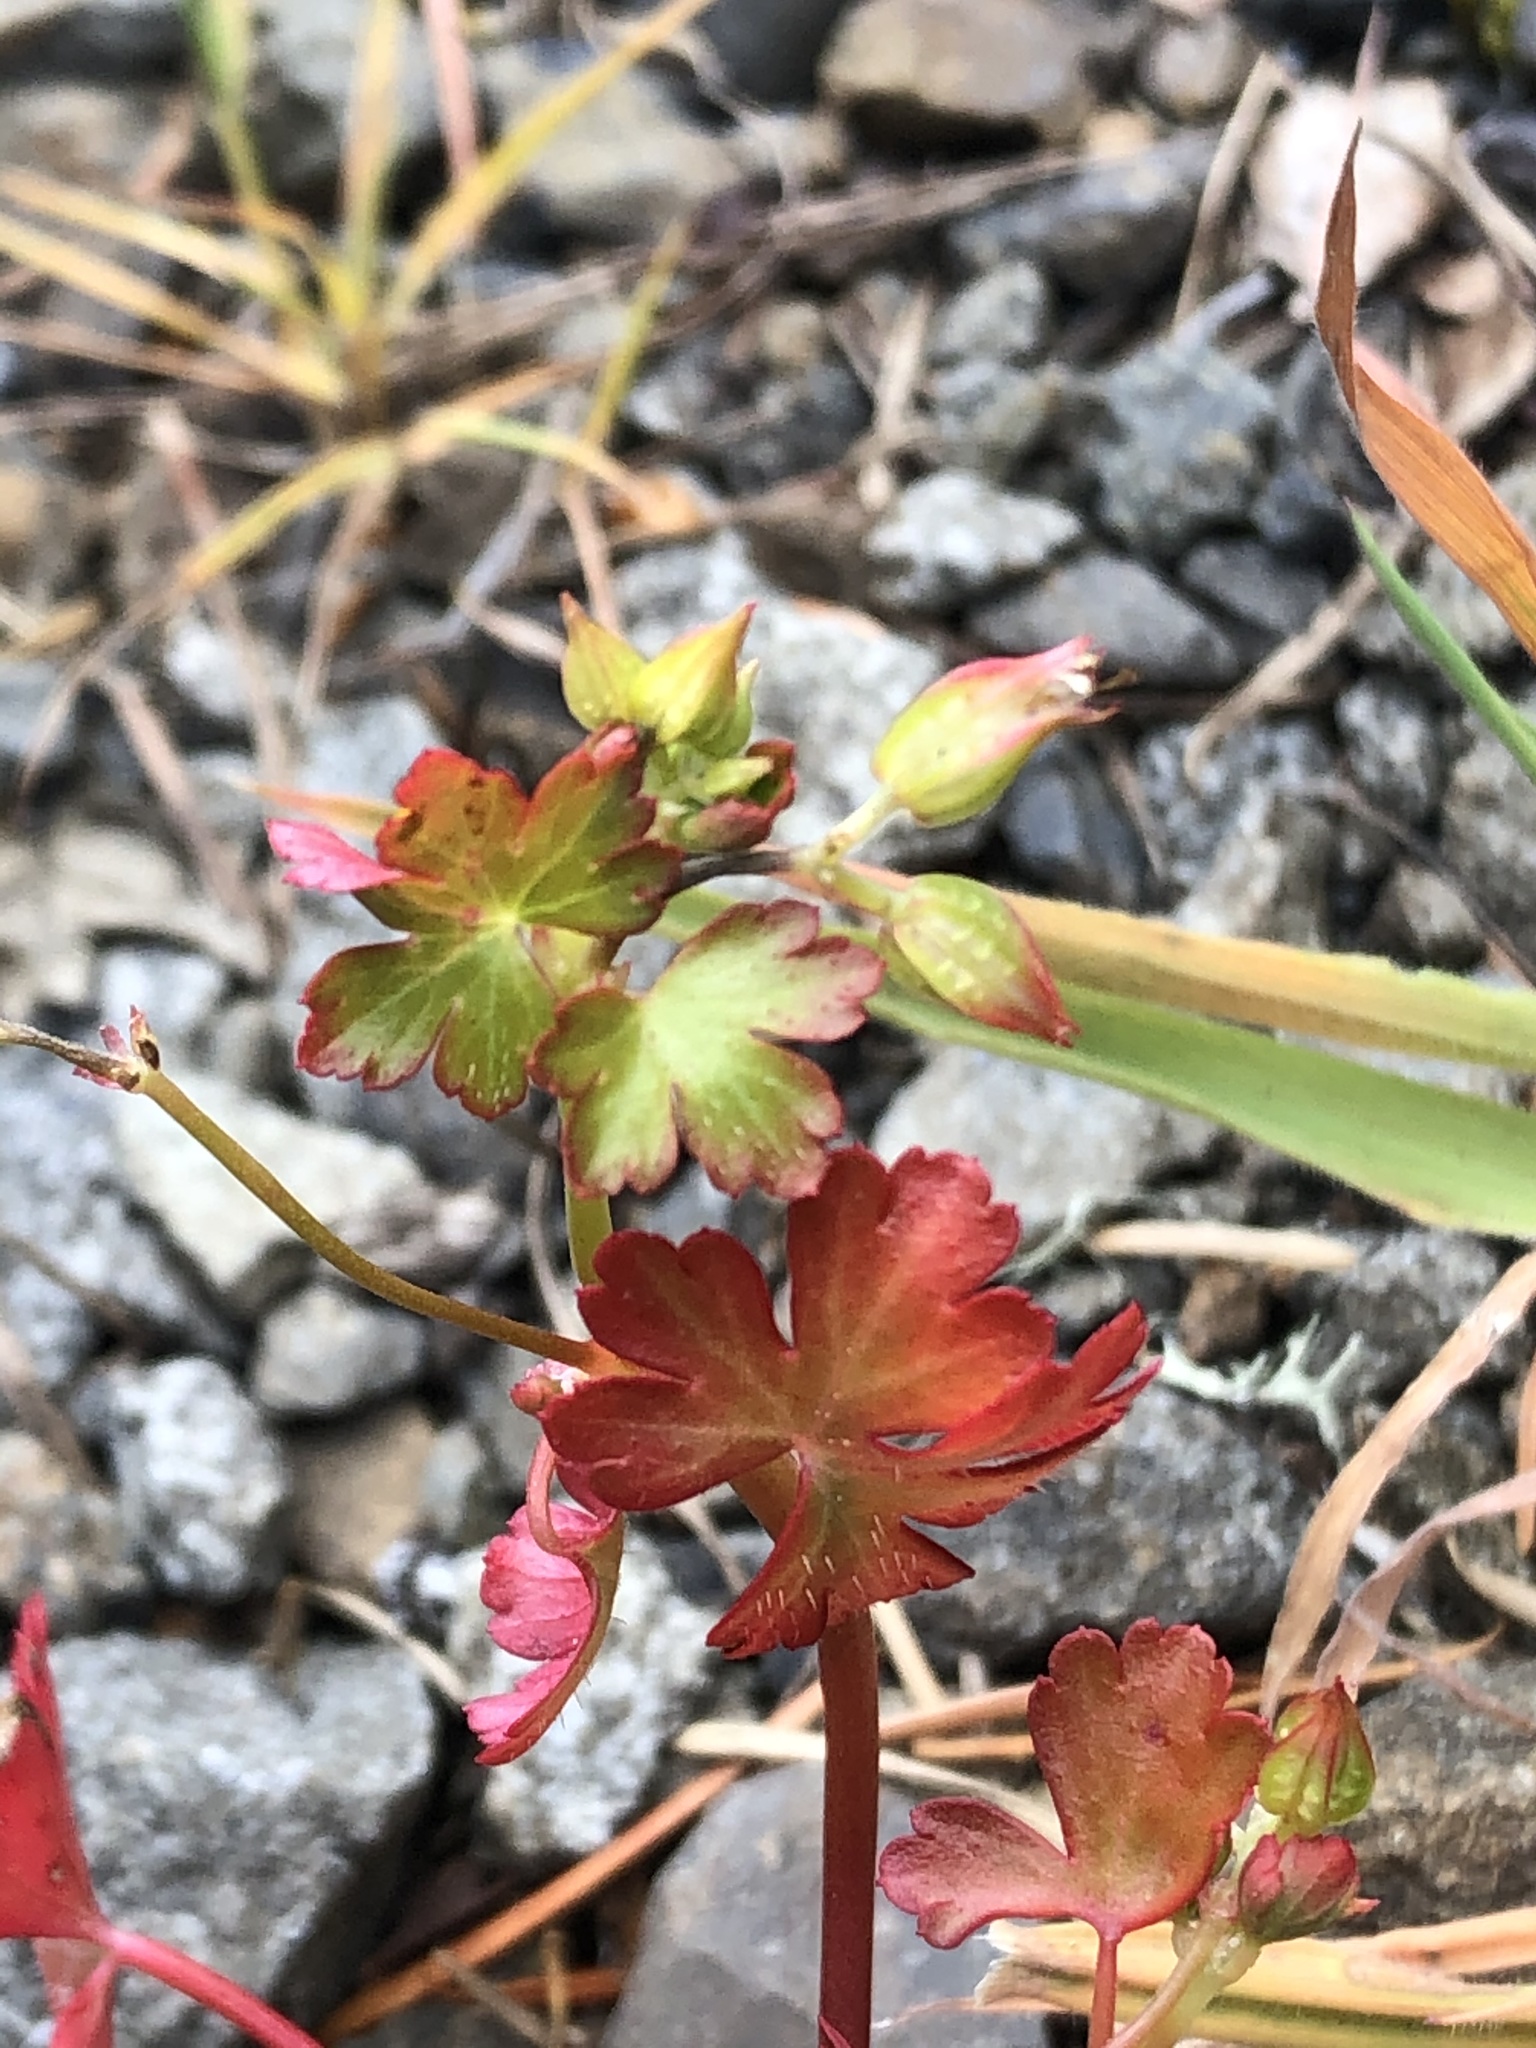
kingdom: Plantae
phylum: Tracheophyta
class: Magnoliopsida
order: Geraniales
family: Geraniaceae
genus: Geranium
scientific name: Geranium lucidum
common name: Shining crane's-bill
